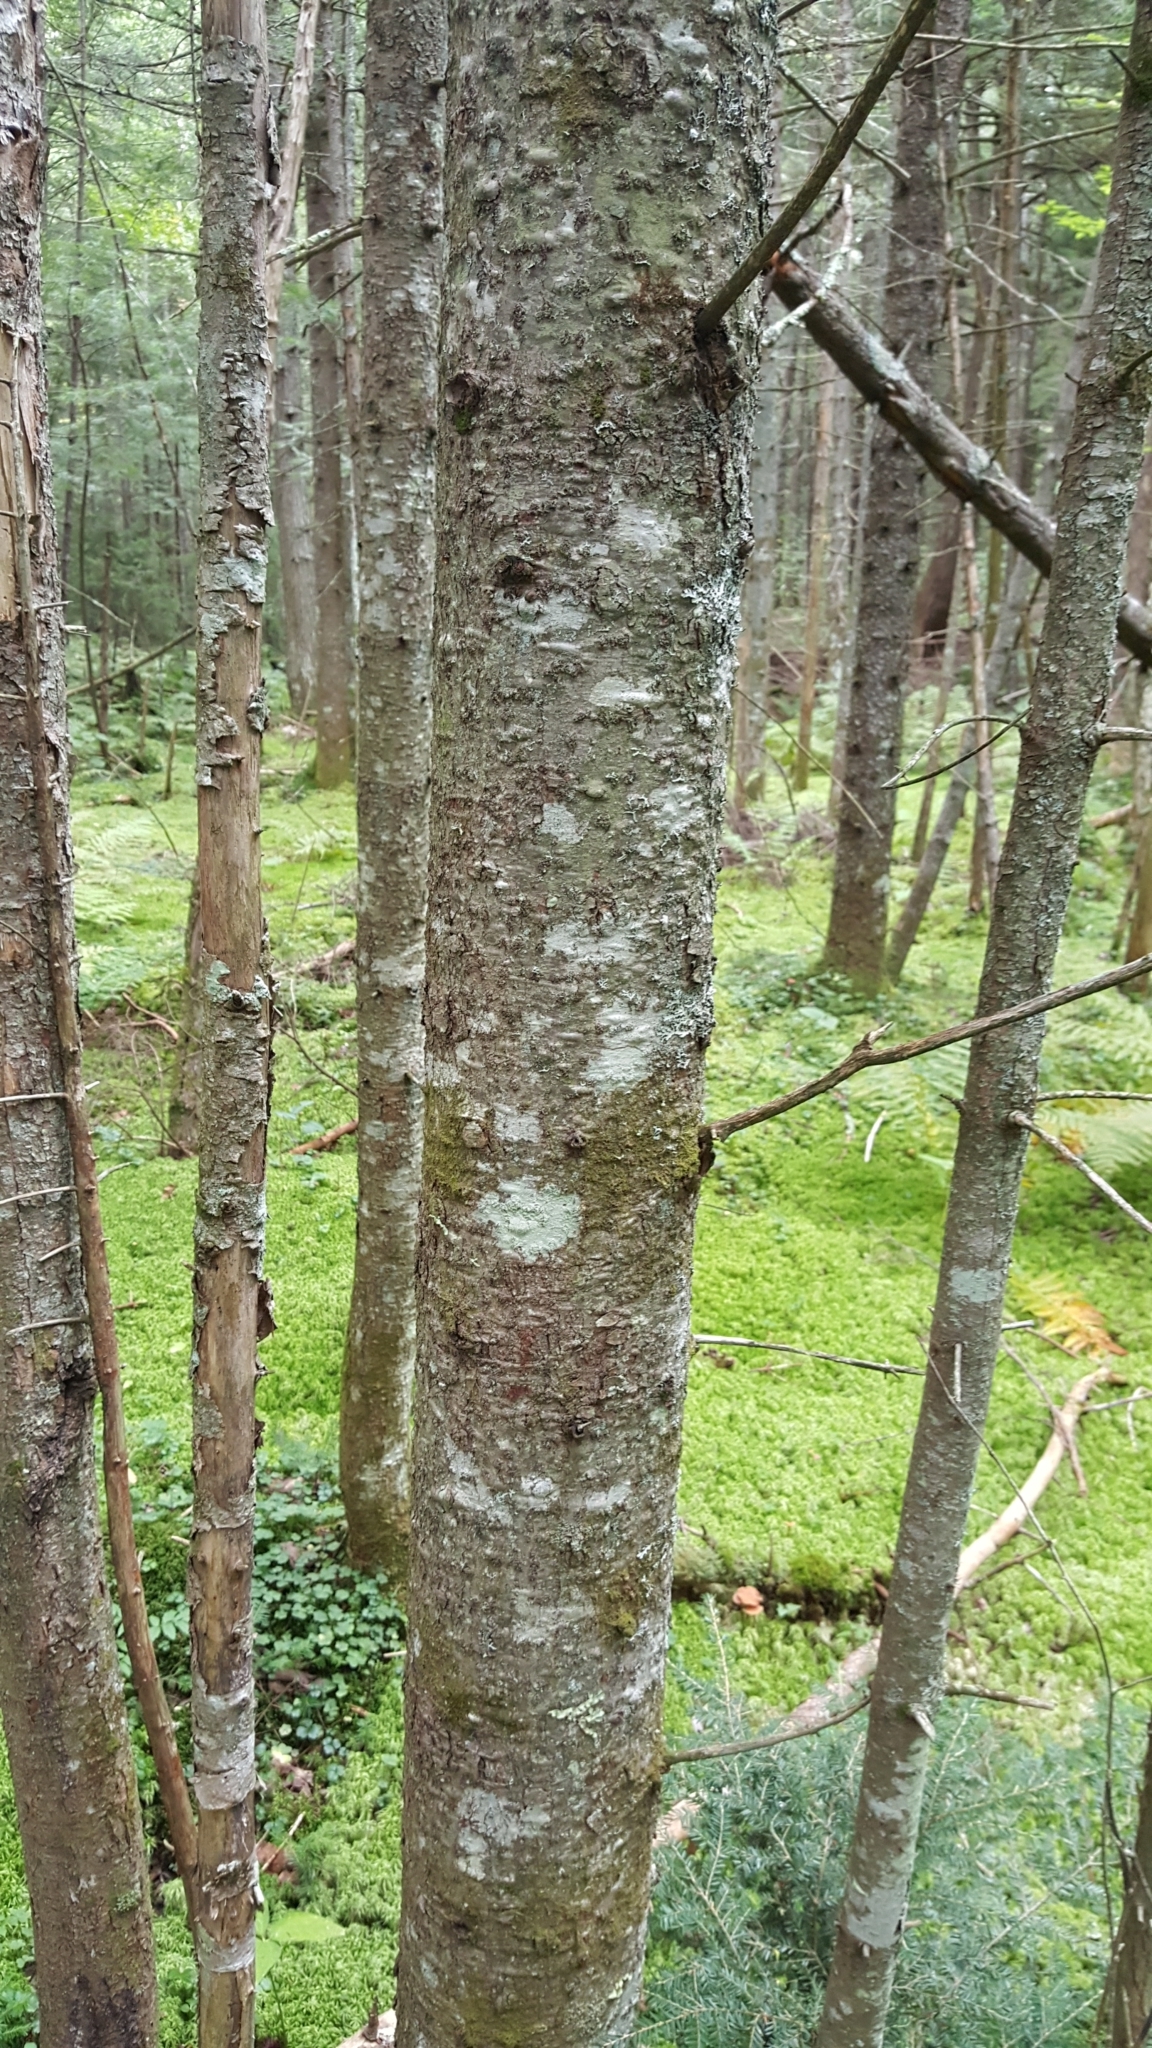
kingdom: Plantae
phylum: Tracheophyta
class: Pinopsida
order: Pinales
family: Pinaceae
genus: Abies
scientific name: Abies balsamea
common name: Balsam fir
